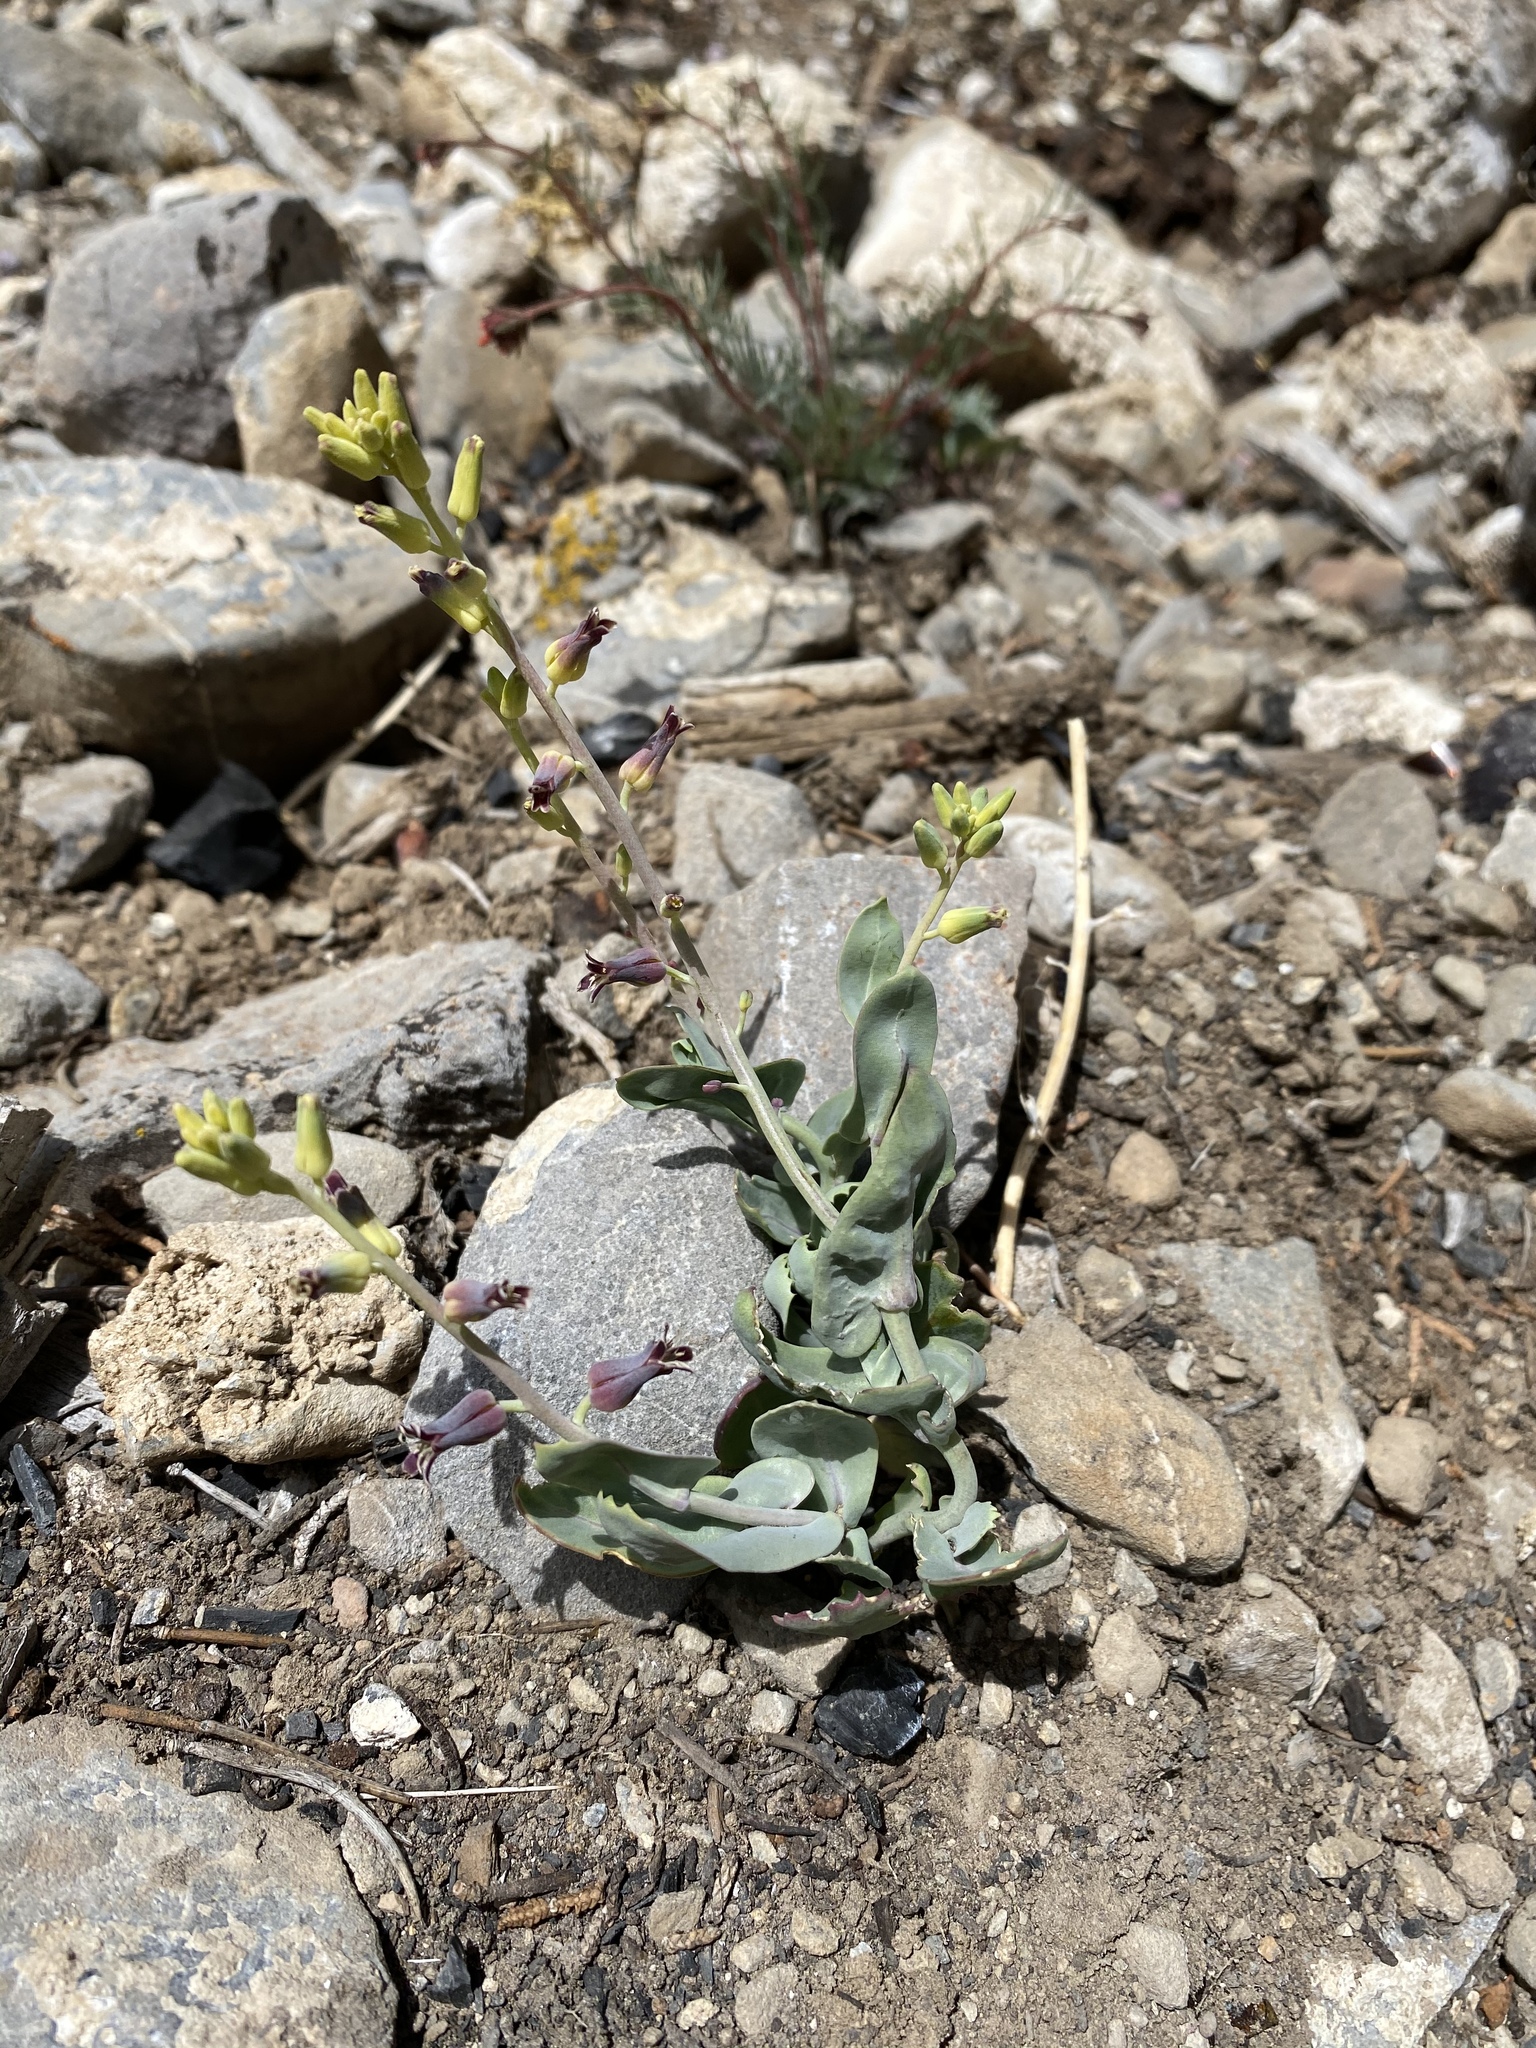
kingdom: Plantae
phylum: Tracheophyta
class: Magnoliopsida
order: Brassicales
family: Brassicaceae
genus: Streptanthus
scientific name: Streptanthus cordatus
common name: Heart-leaf jewel-flower
